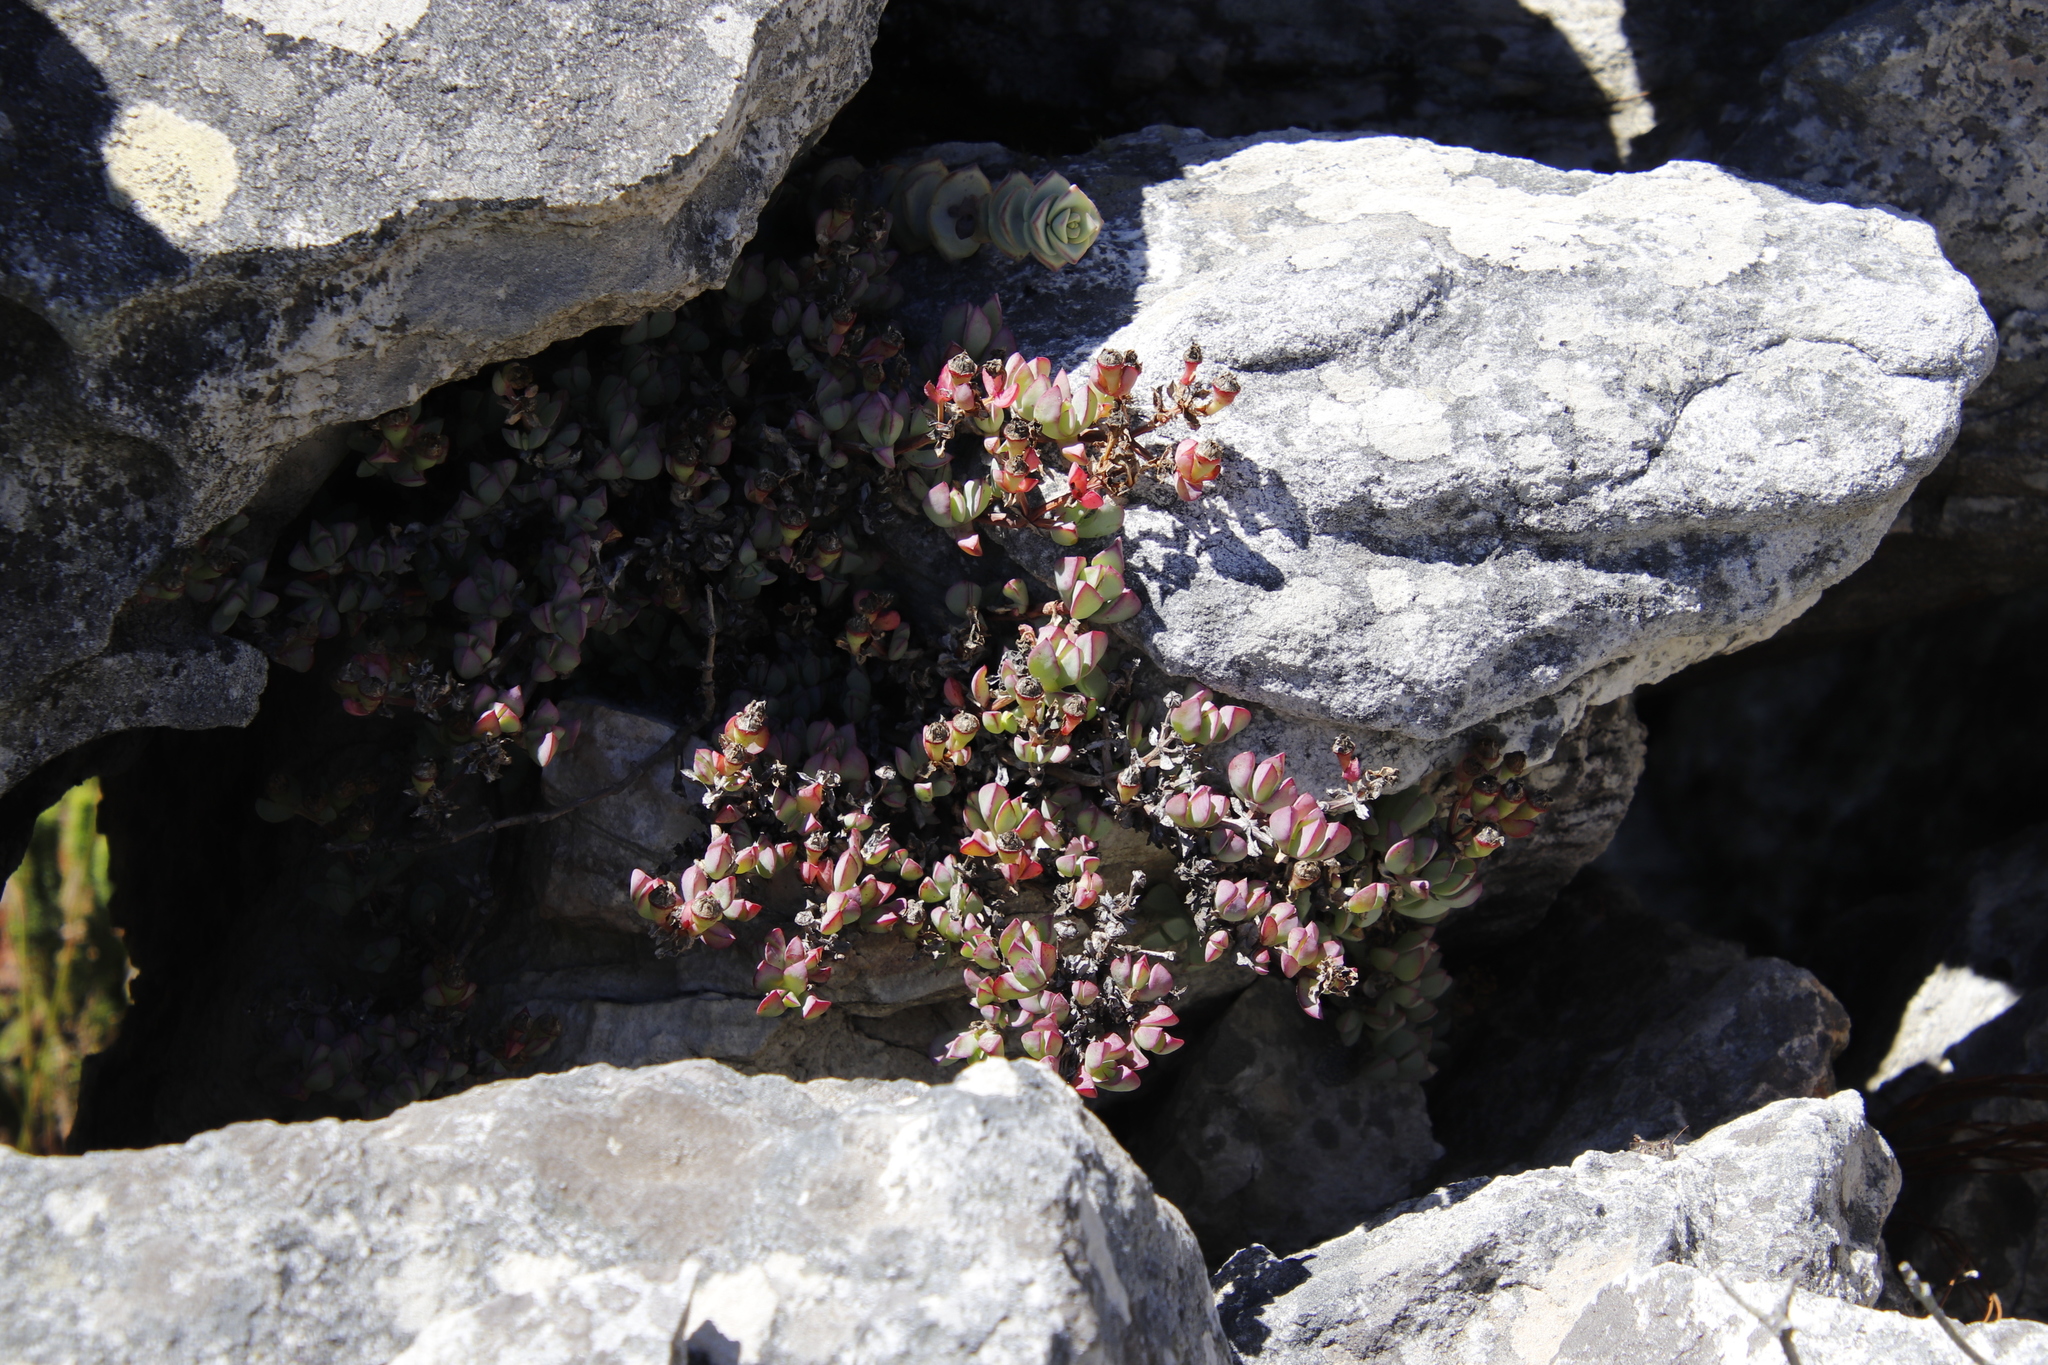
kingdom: Plantae
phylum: Tracheophyta
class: Magnoliopsida
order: Saxifragales
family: Crassulaceae
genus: Crassula
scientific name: Crassula rupestris
